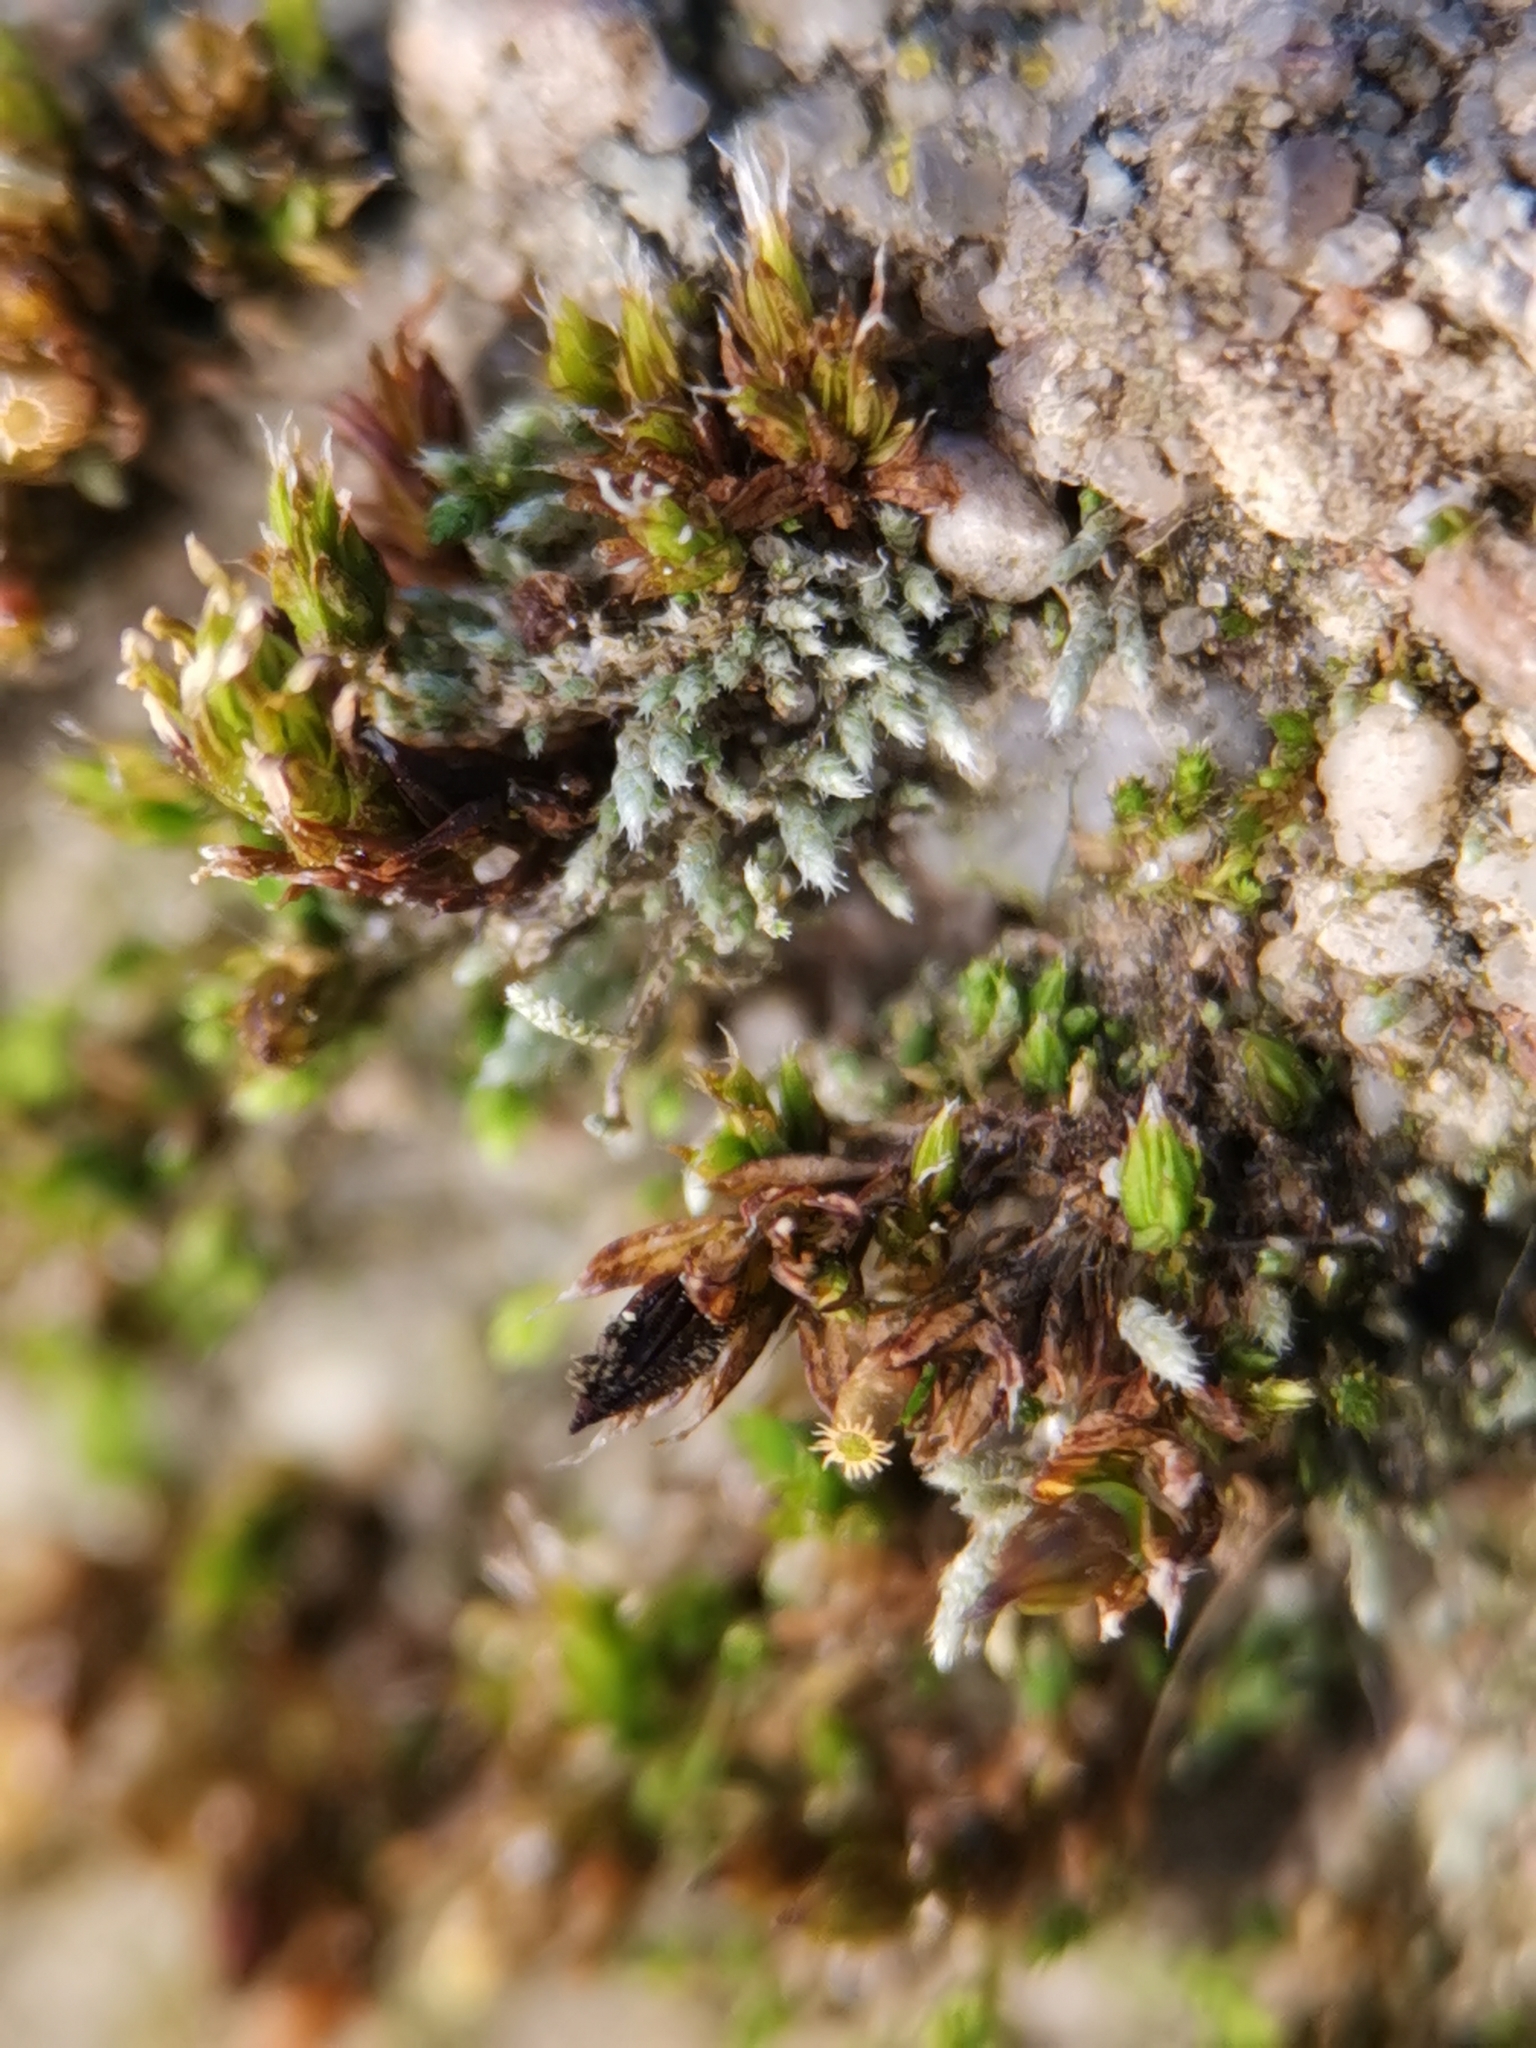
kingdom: Plantae
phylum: Bryophyta
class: Bryopsida
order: Bryales
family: Bryaceae
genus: Bryum
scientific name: Bryum argenteum
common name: Silver-moss
